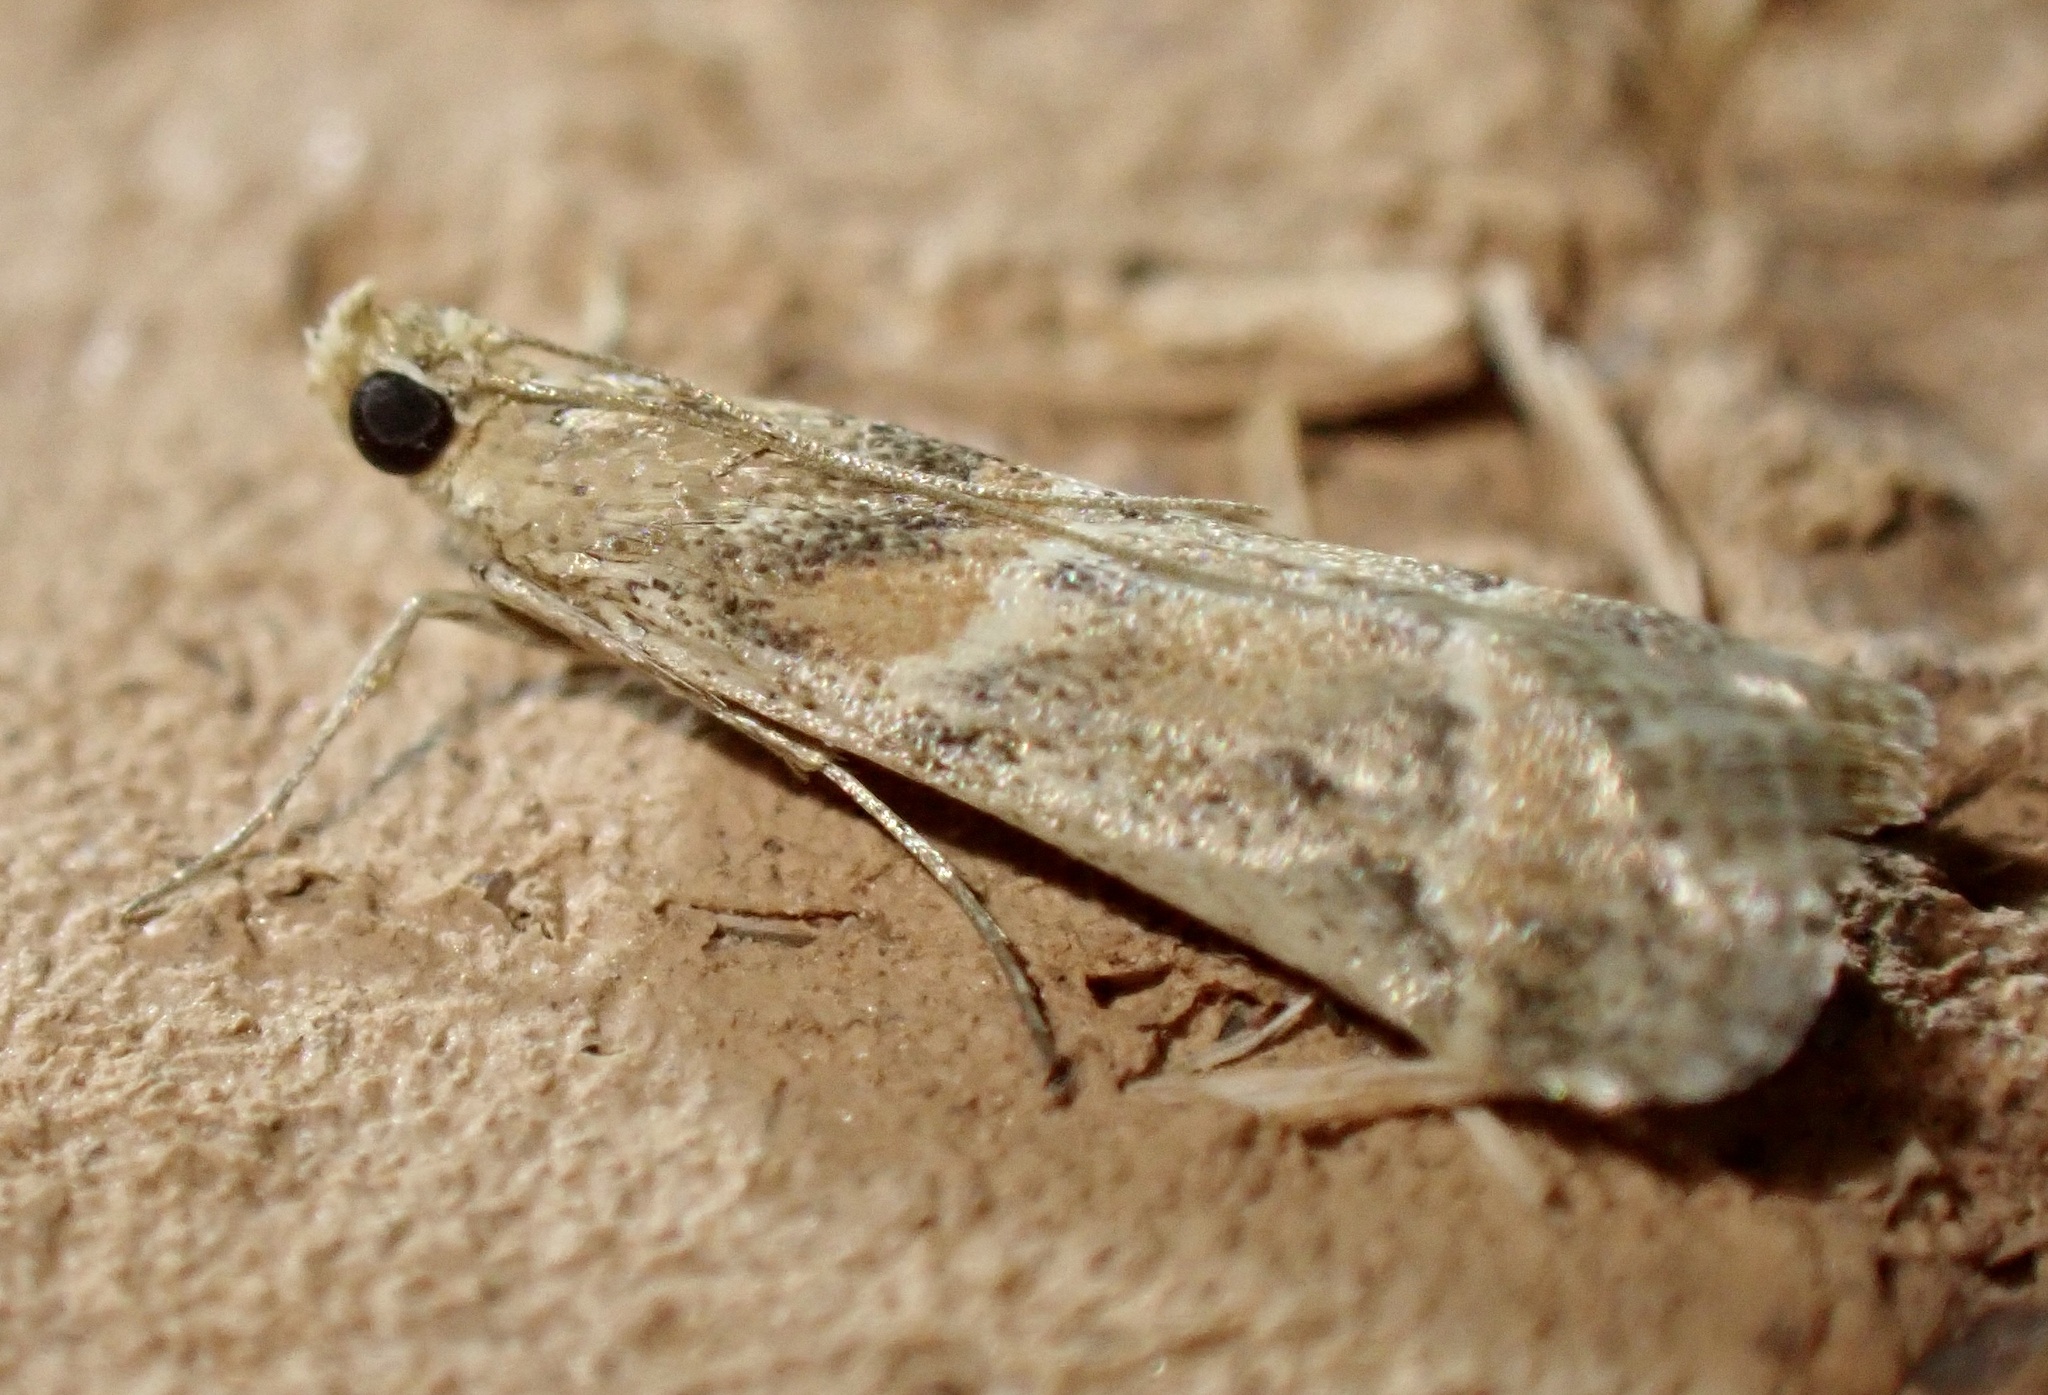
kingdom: Animalia
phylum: Arthropoda
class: Insecta
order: Lepidoptera
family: Pyralidae
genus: Ancylosis
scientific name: Ancylosis samaritanella
